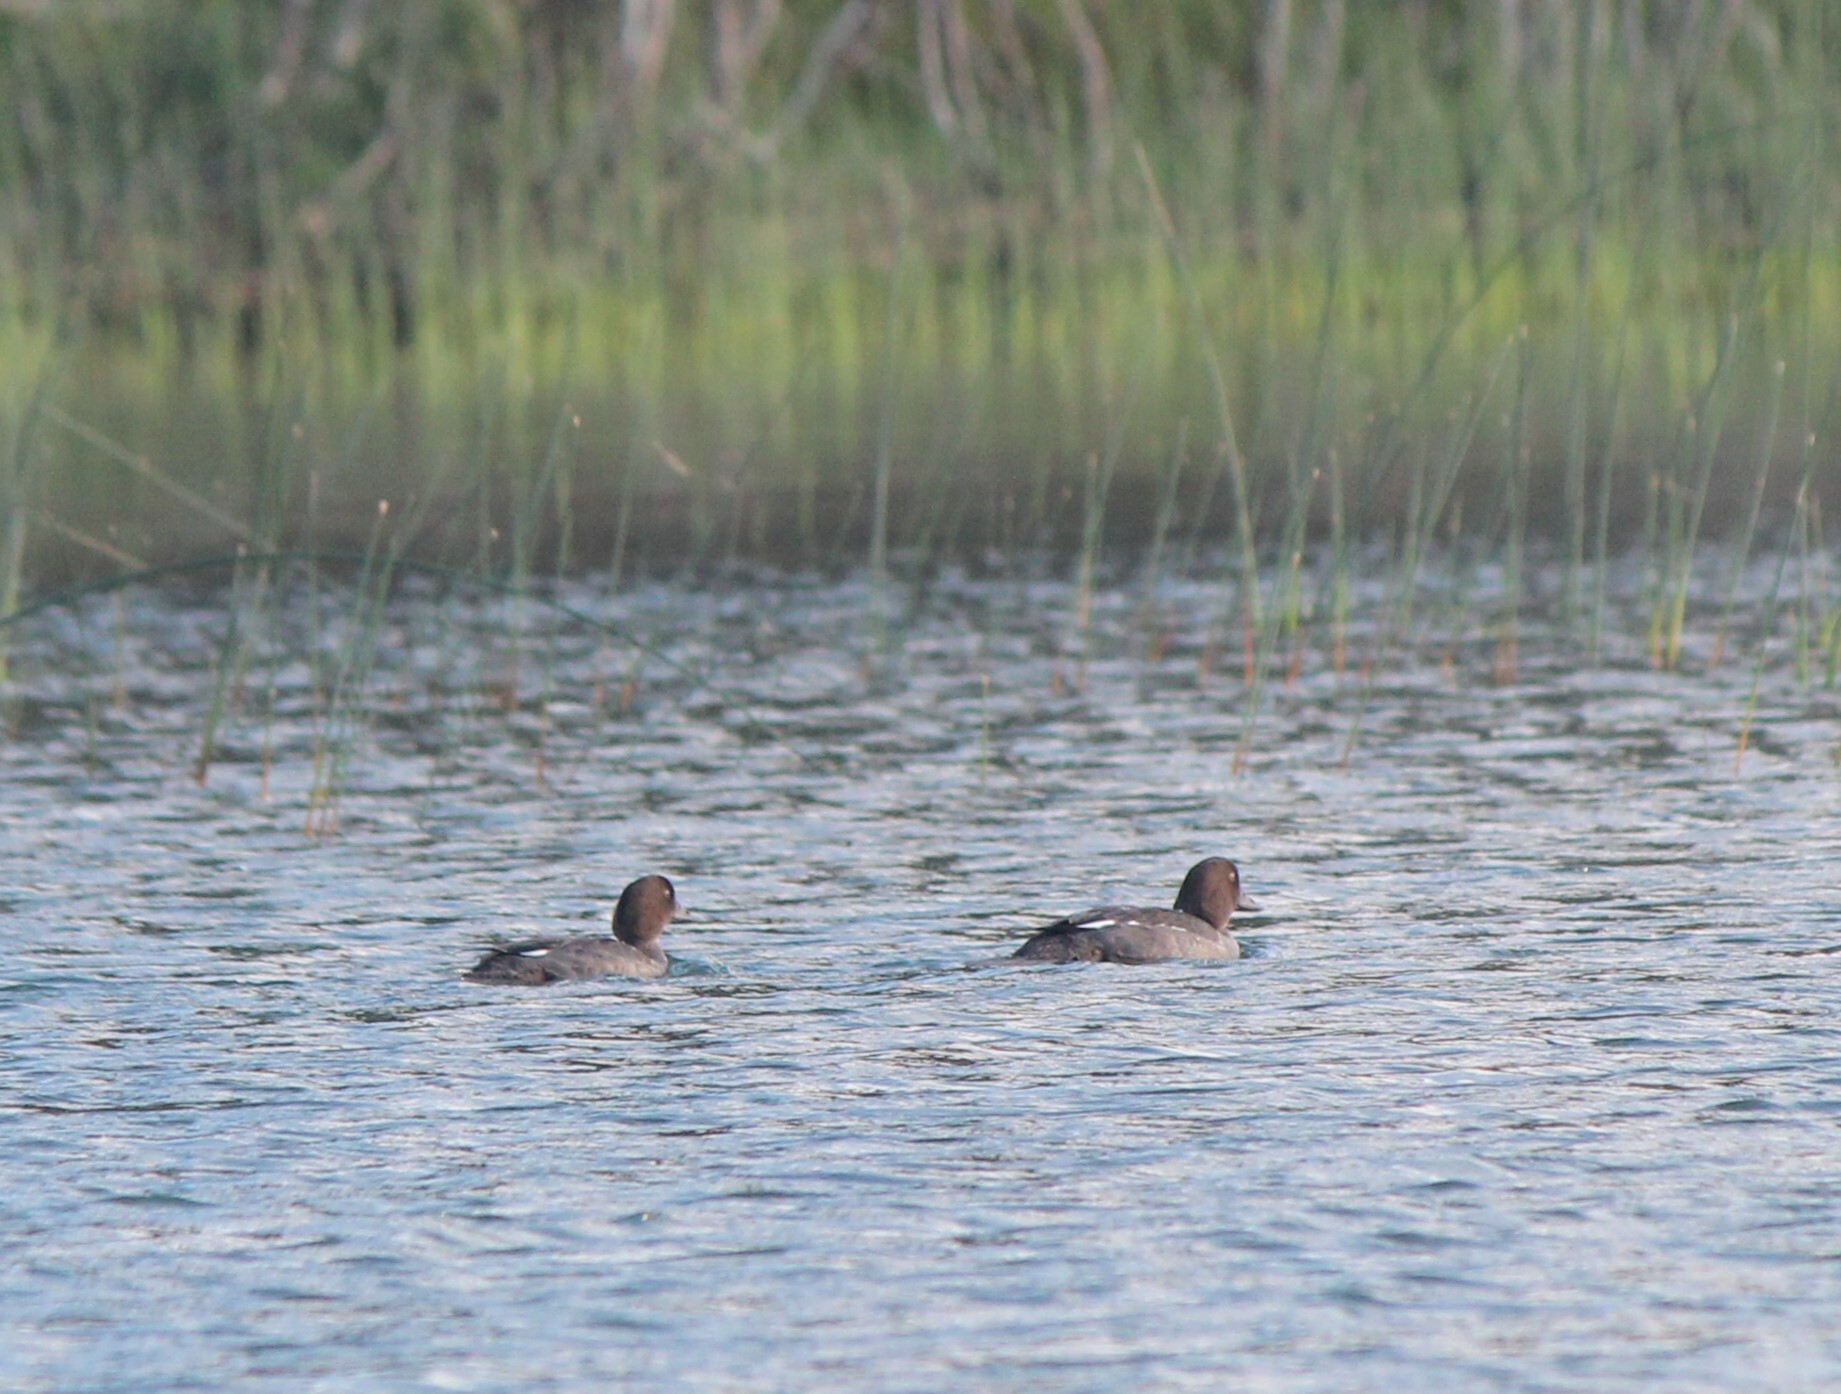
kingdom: Animalia
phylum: Chordata
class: Aves
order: Anseriformes
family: Anatidae
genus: Bucephala
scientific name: Bucephala clangula
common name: Common goldeneye
